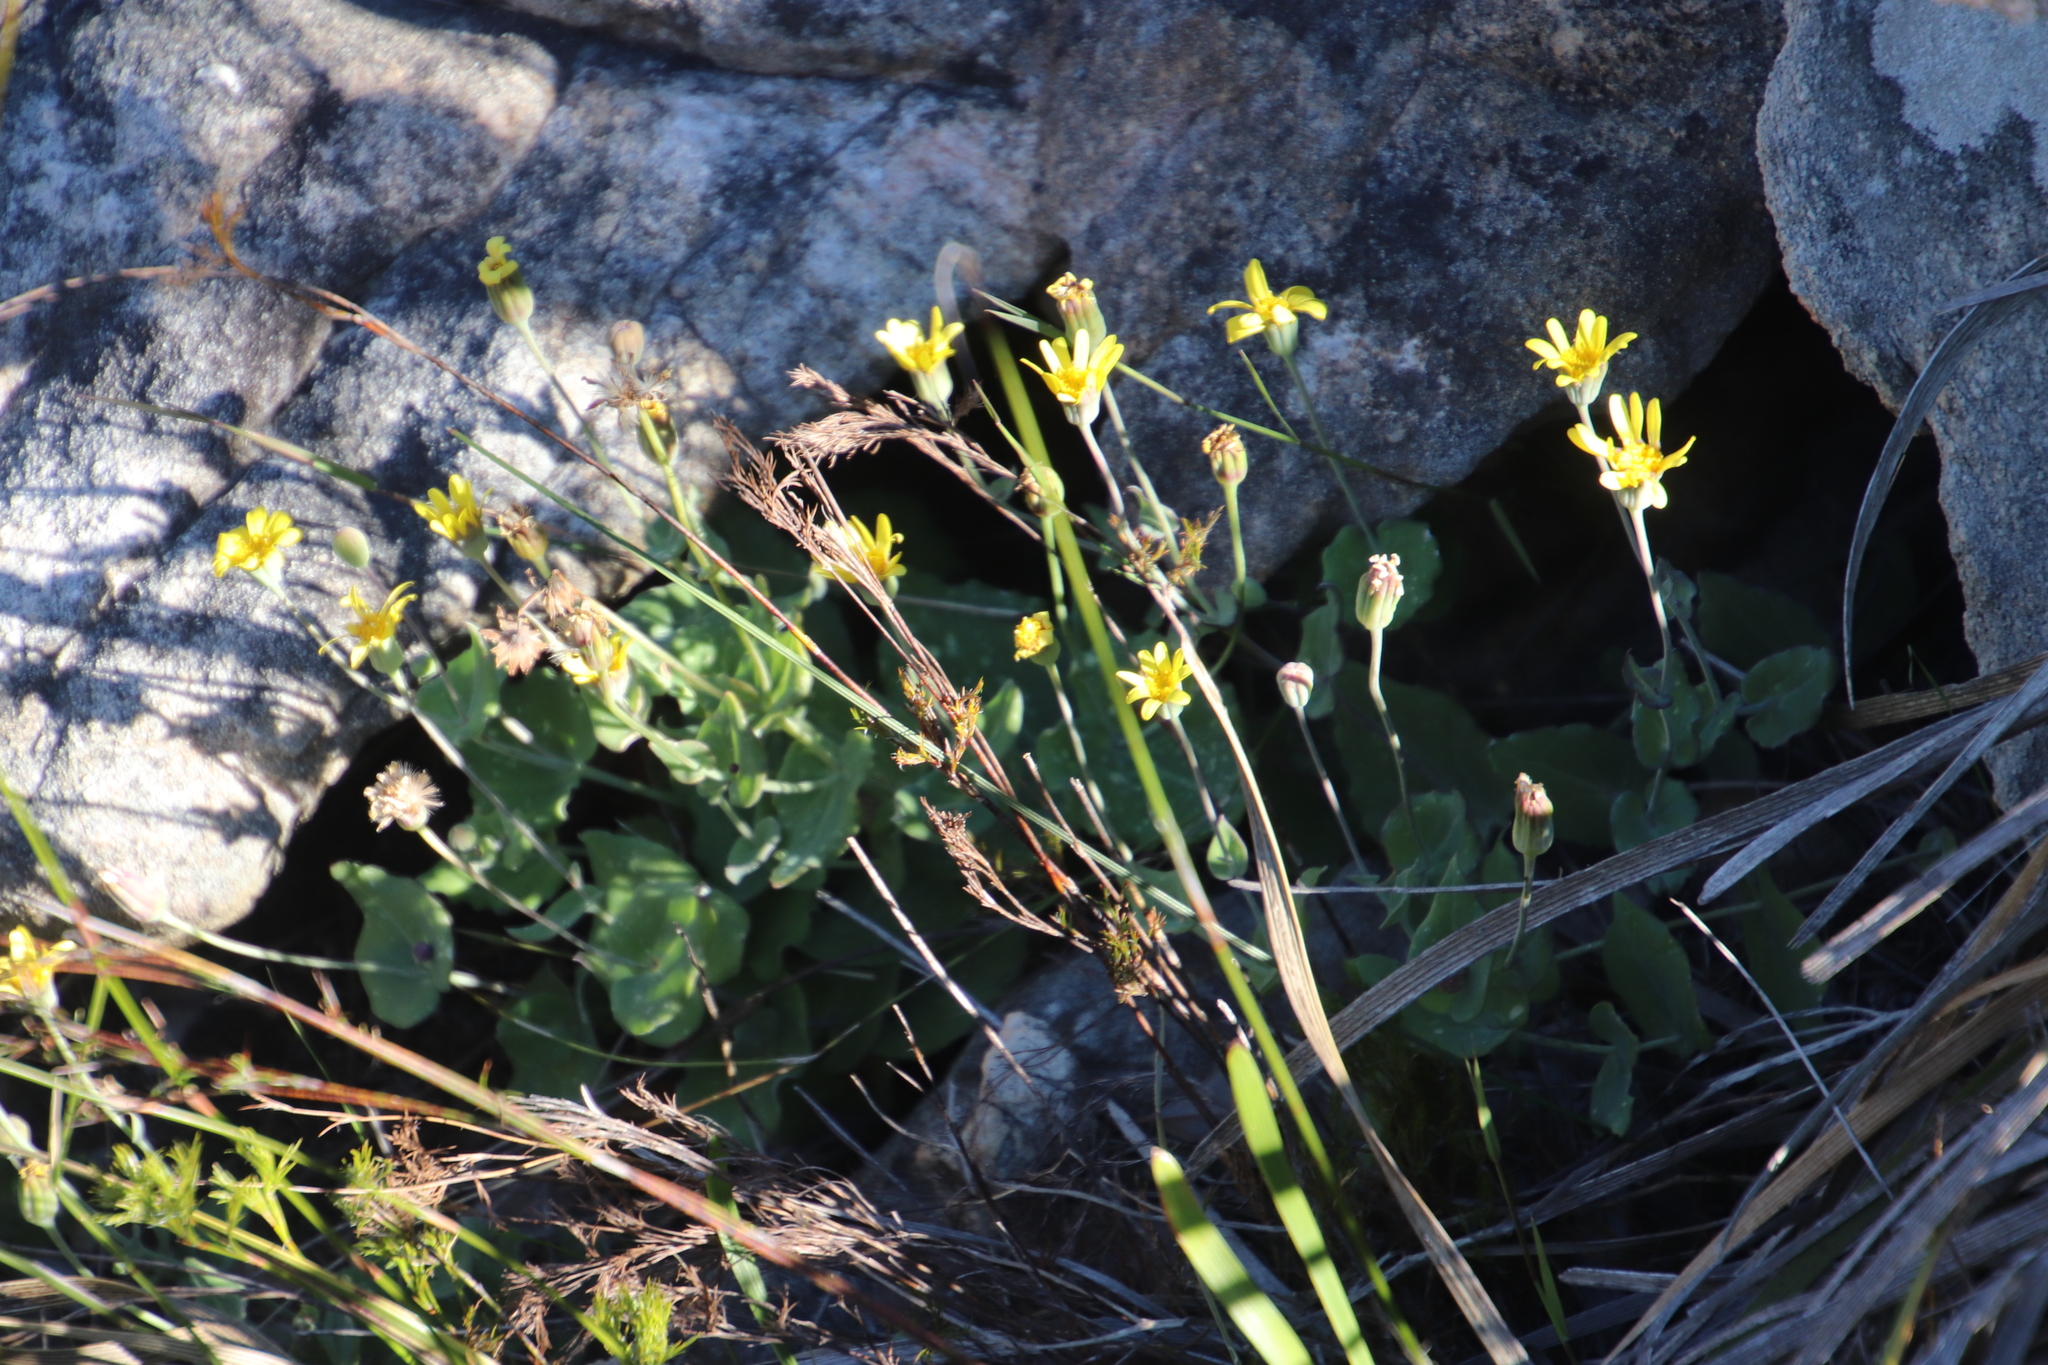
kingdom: Plantae
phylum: Tracheophyta
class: Magnoliopsida
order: Asterales
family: Asteraceae
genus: Othonna
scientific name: Othonna perfoliata
